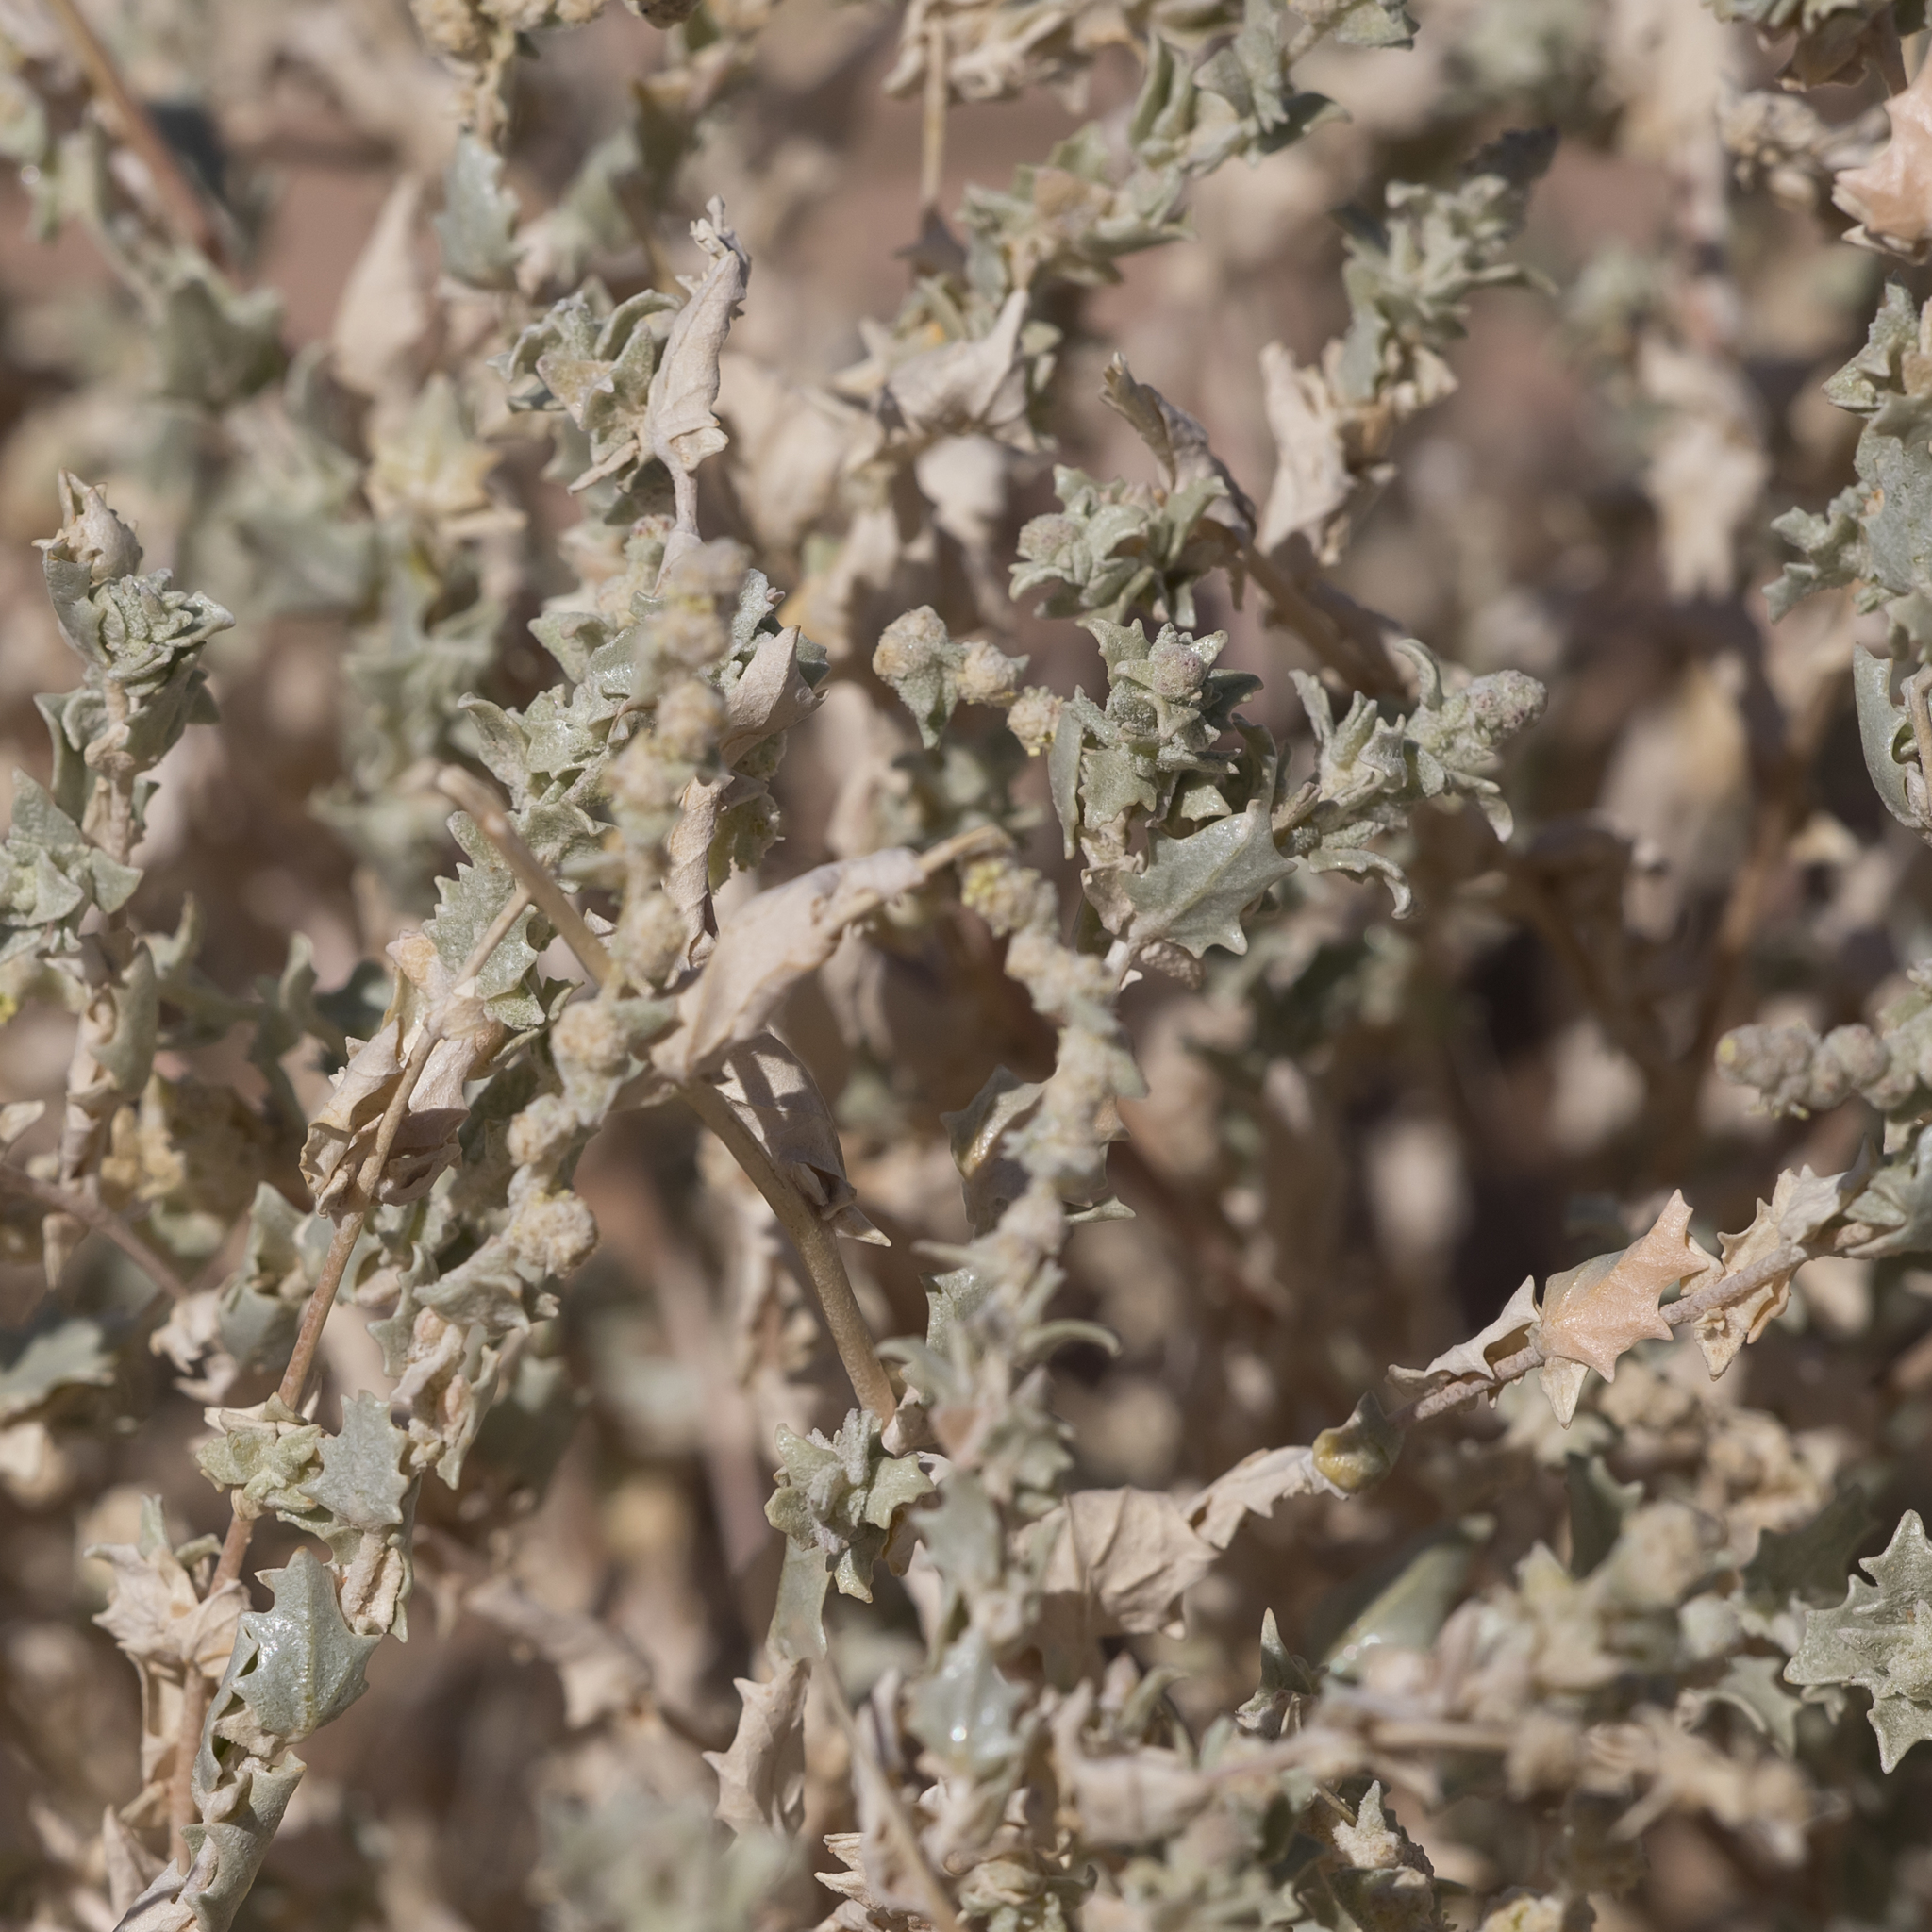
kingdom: Plantae
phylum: Tracheophyta
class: Magnoliopsida
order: Caryophyllales
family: Amaranthaceae
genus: Atriplex
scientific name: Atriplex velutinella
